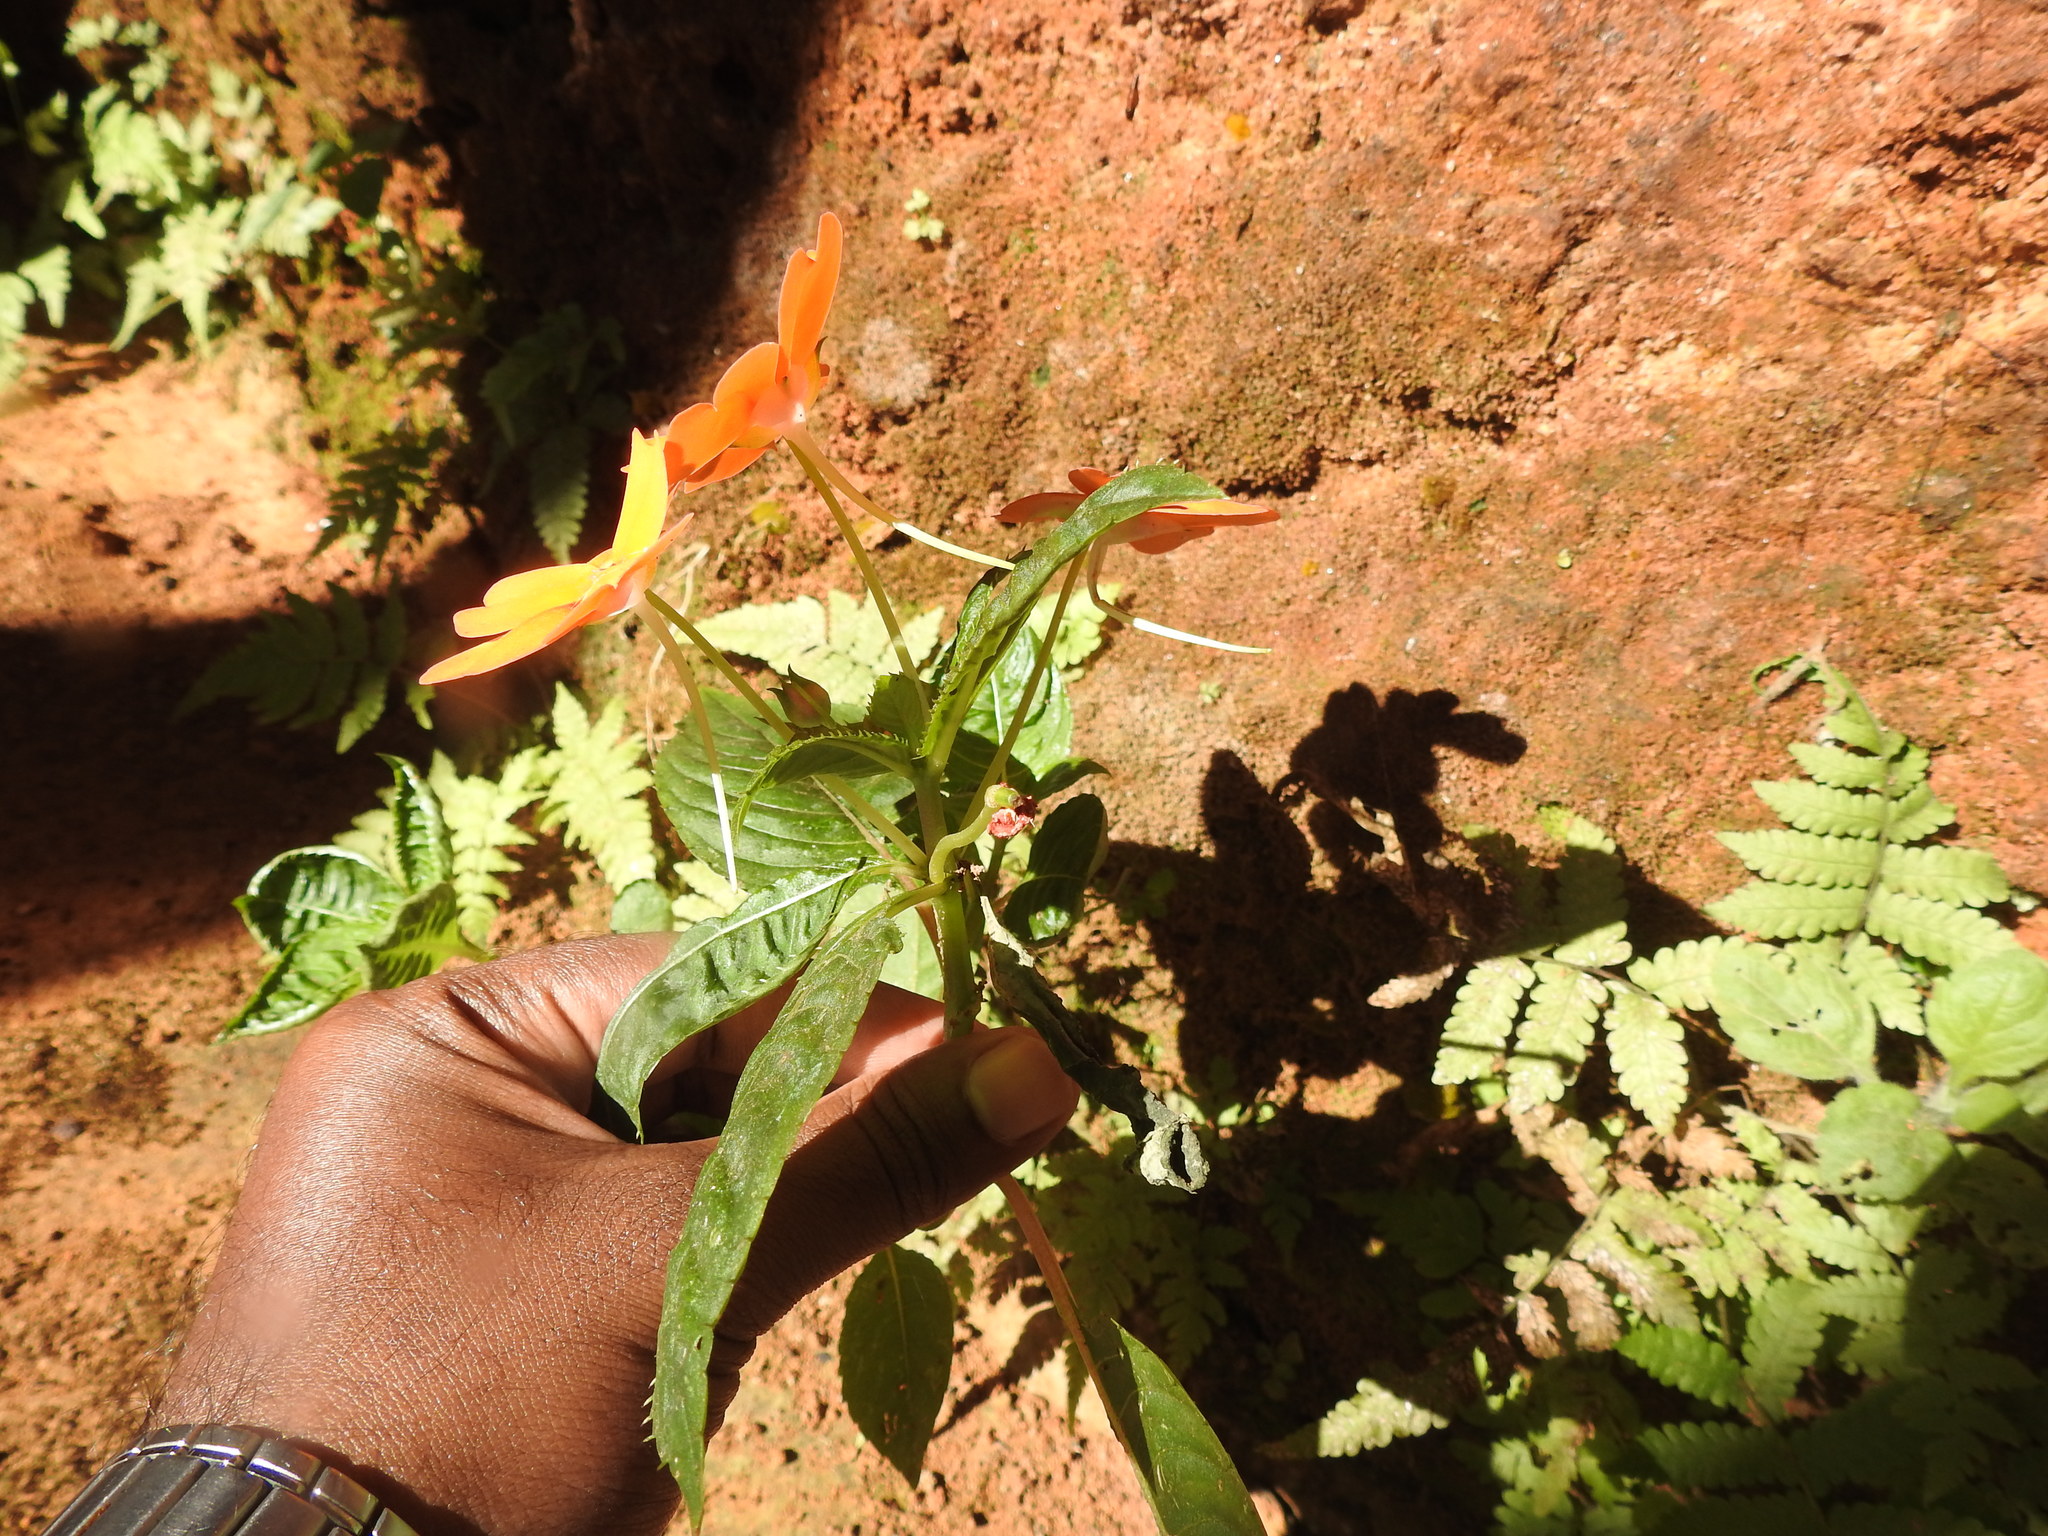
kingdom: Plantae
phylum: Tracheophyta
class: Magnoliopsida
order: Ericales
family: Balsaminaceae
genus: Impatiens
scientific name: Impatiens hawkeri
